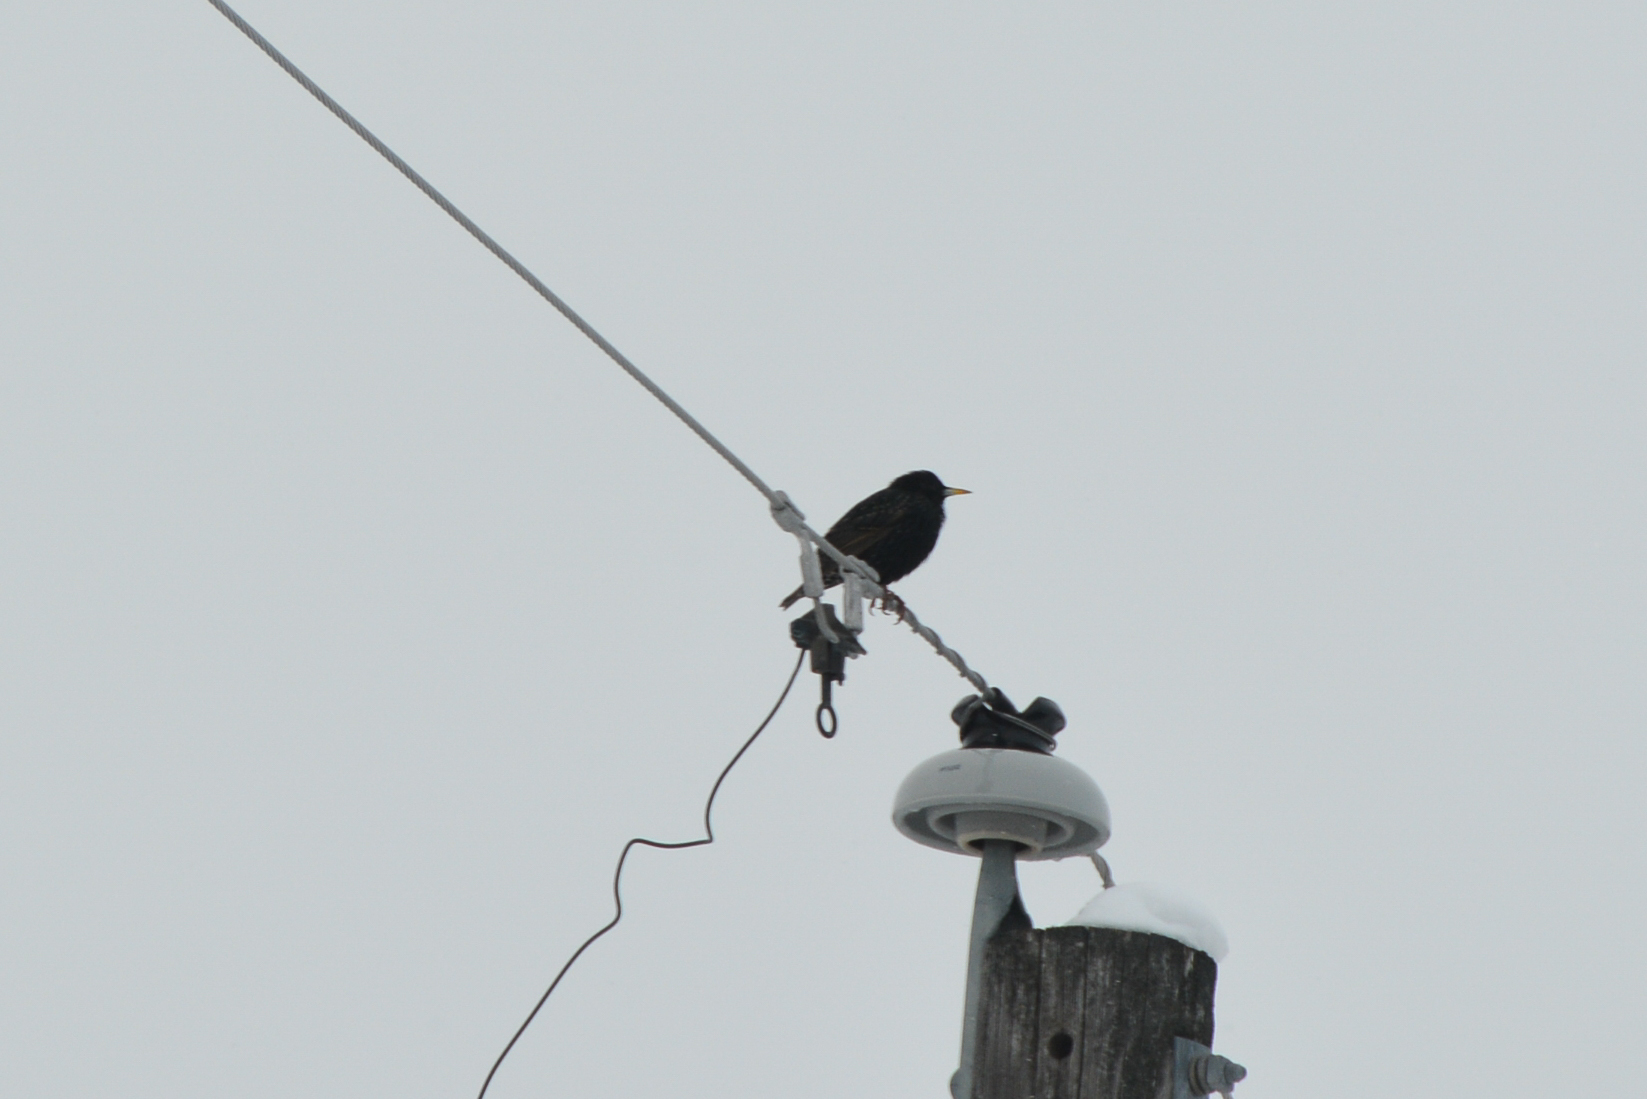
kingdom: Animalia
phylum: Chordata
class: Aves
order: Passeriformes
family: Sturnidae
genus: Sturnus
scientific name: Sturnus vulgaris
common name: Common starling
